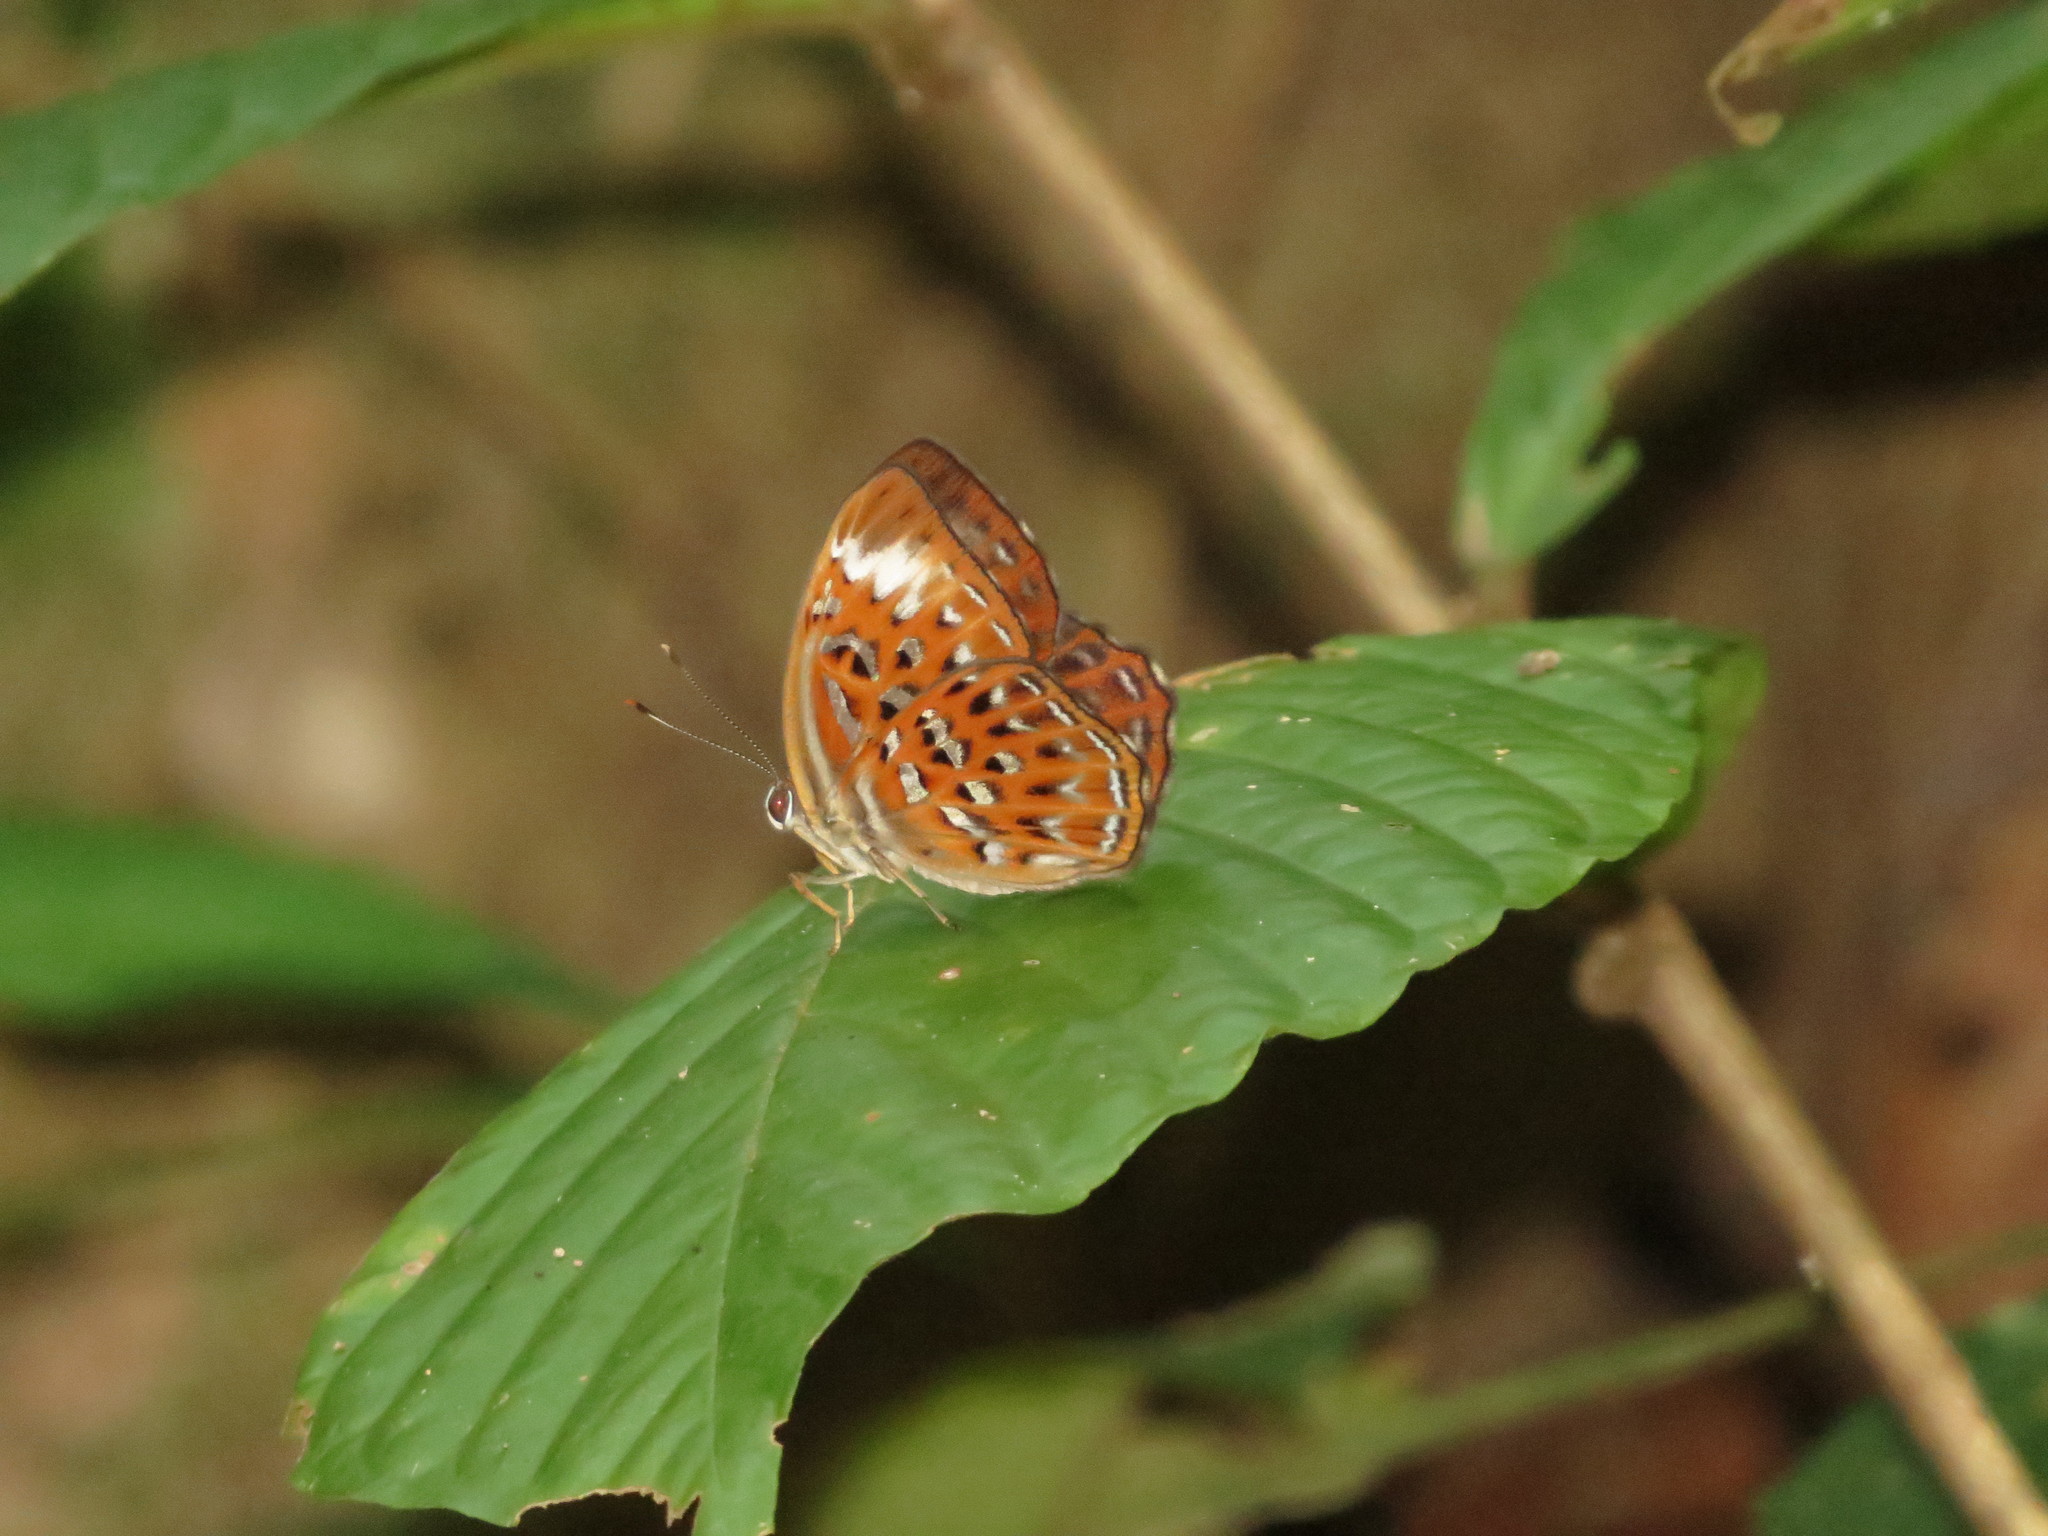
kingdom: Animalia
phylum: Arthropoda
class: Insecta
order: Lepidoptera
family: Erebidae
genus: Dysschema
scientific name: Dysschema
